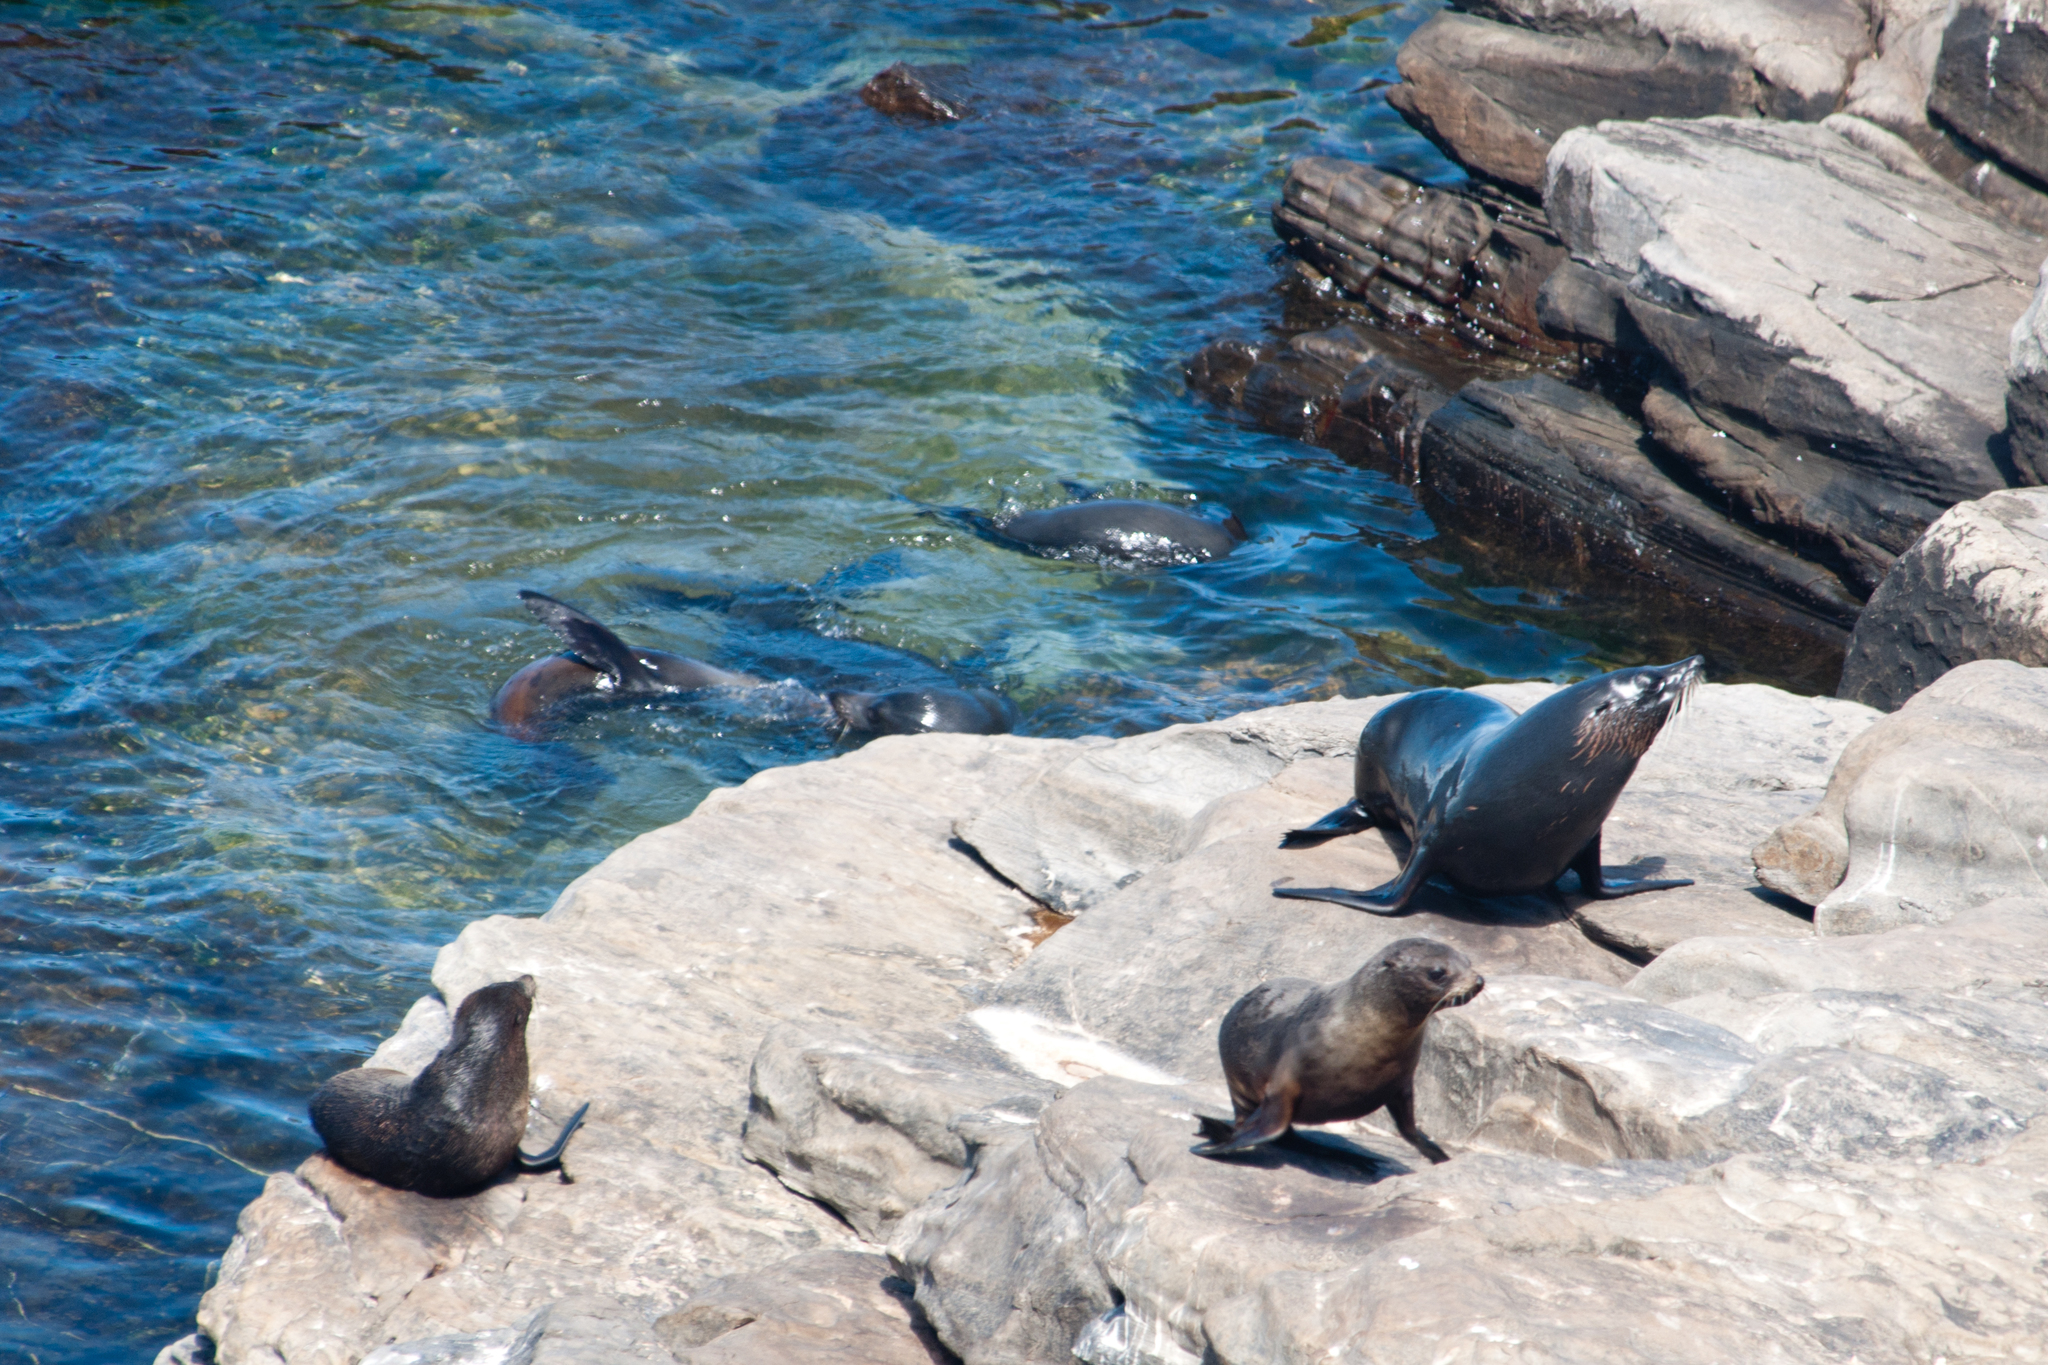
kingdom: Animalia
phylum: Chordata
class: Mammalia
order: Carnivora
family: Otariidae
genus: Arctocephalus
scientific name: Arctocephalus forsteri
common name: New zealand fur seal
